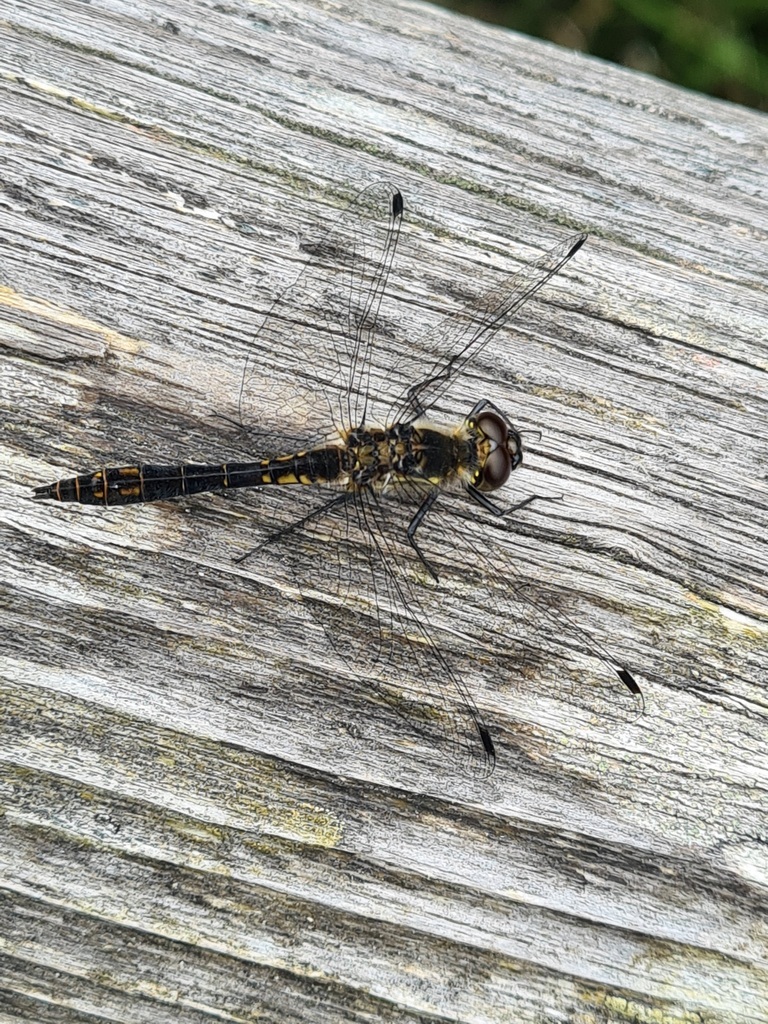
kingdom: Animalia
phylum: Arthropoda
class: Insecta
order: Odonata
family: Libellulidae
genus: Sympetrum
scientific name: Sympetrum danae
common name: Black darter
